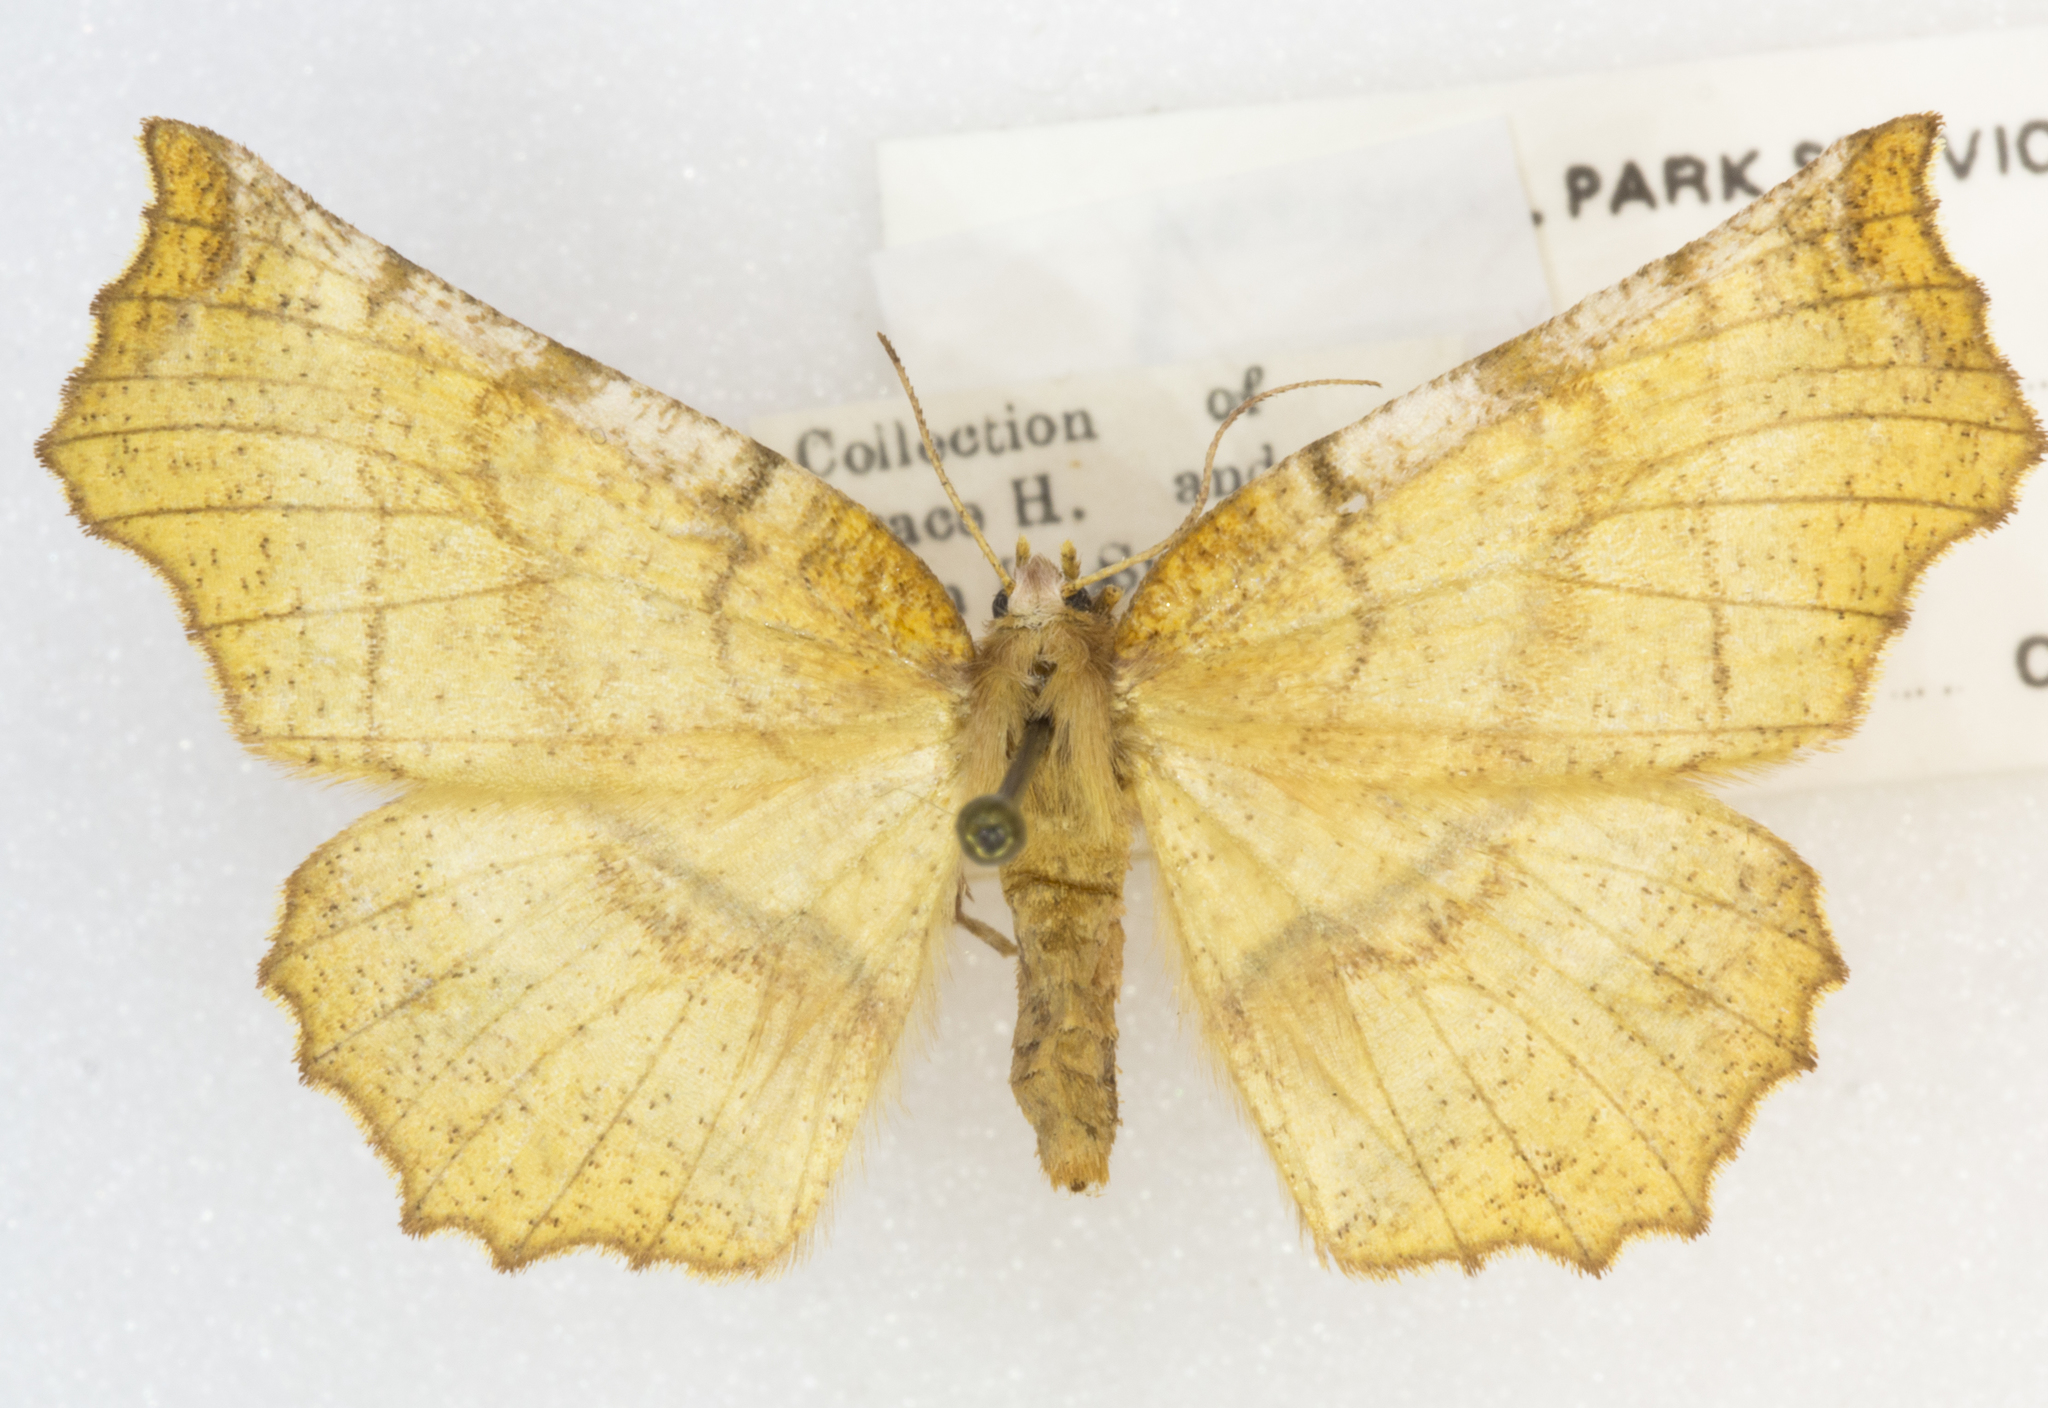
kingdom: Animalia
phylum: Arthropoda
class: Insecta
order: Lepidoptera
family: Geometridae
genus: Selenia
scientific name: Selenia alciphearia
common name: Brown-tipped thorn
